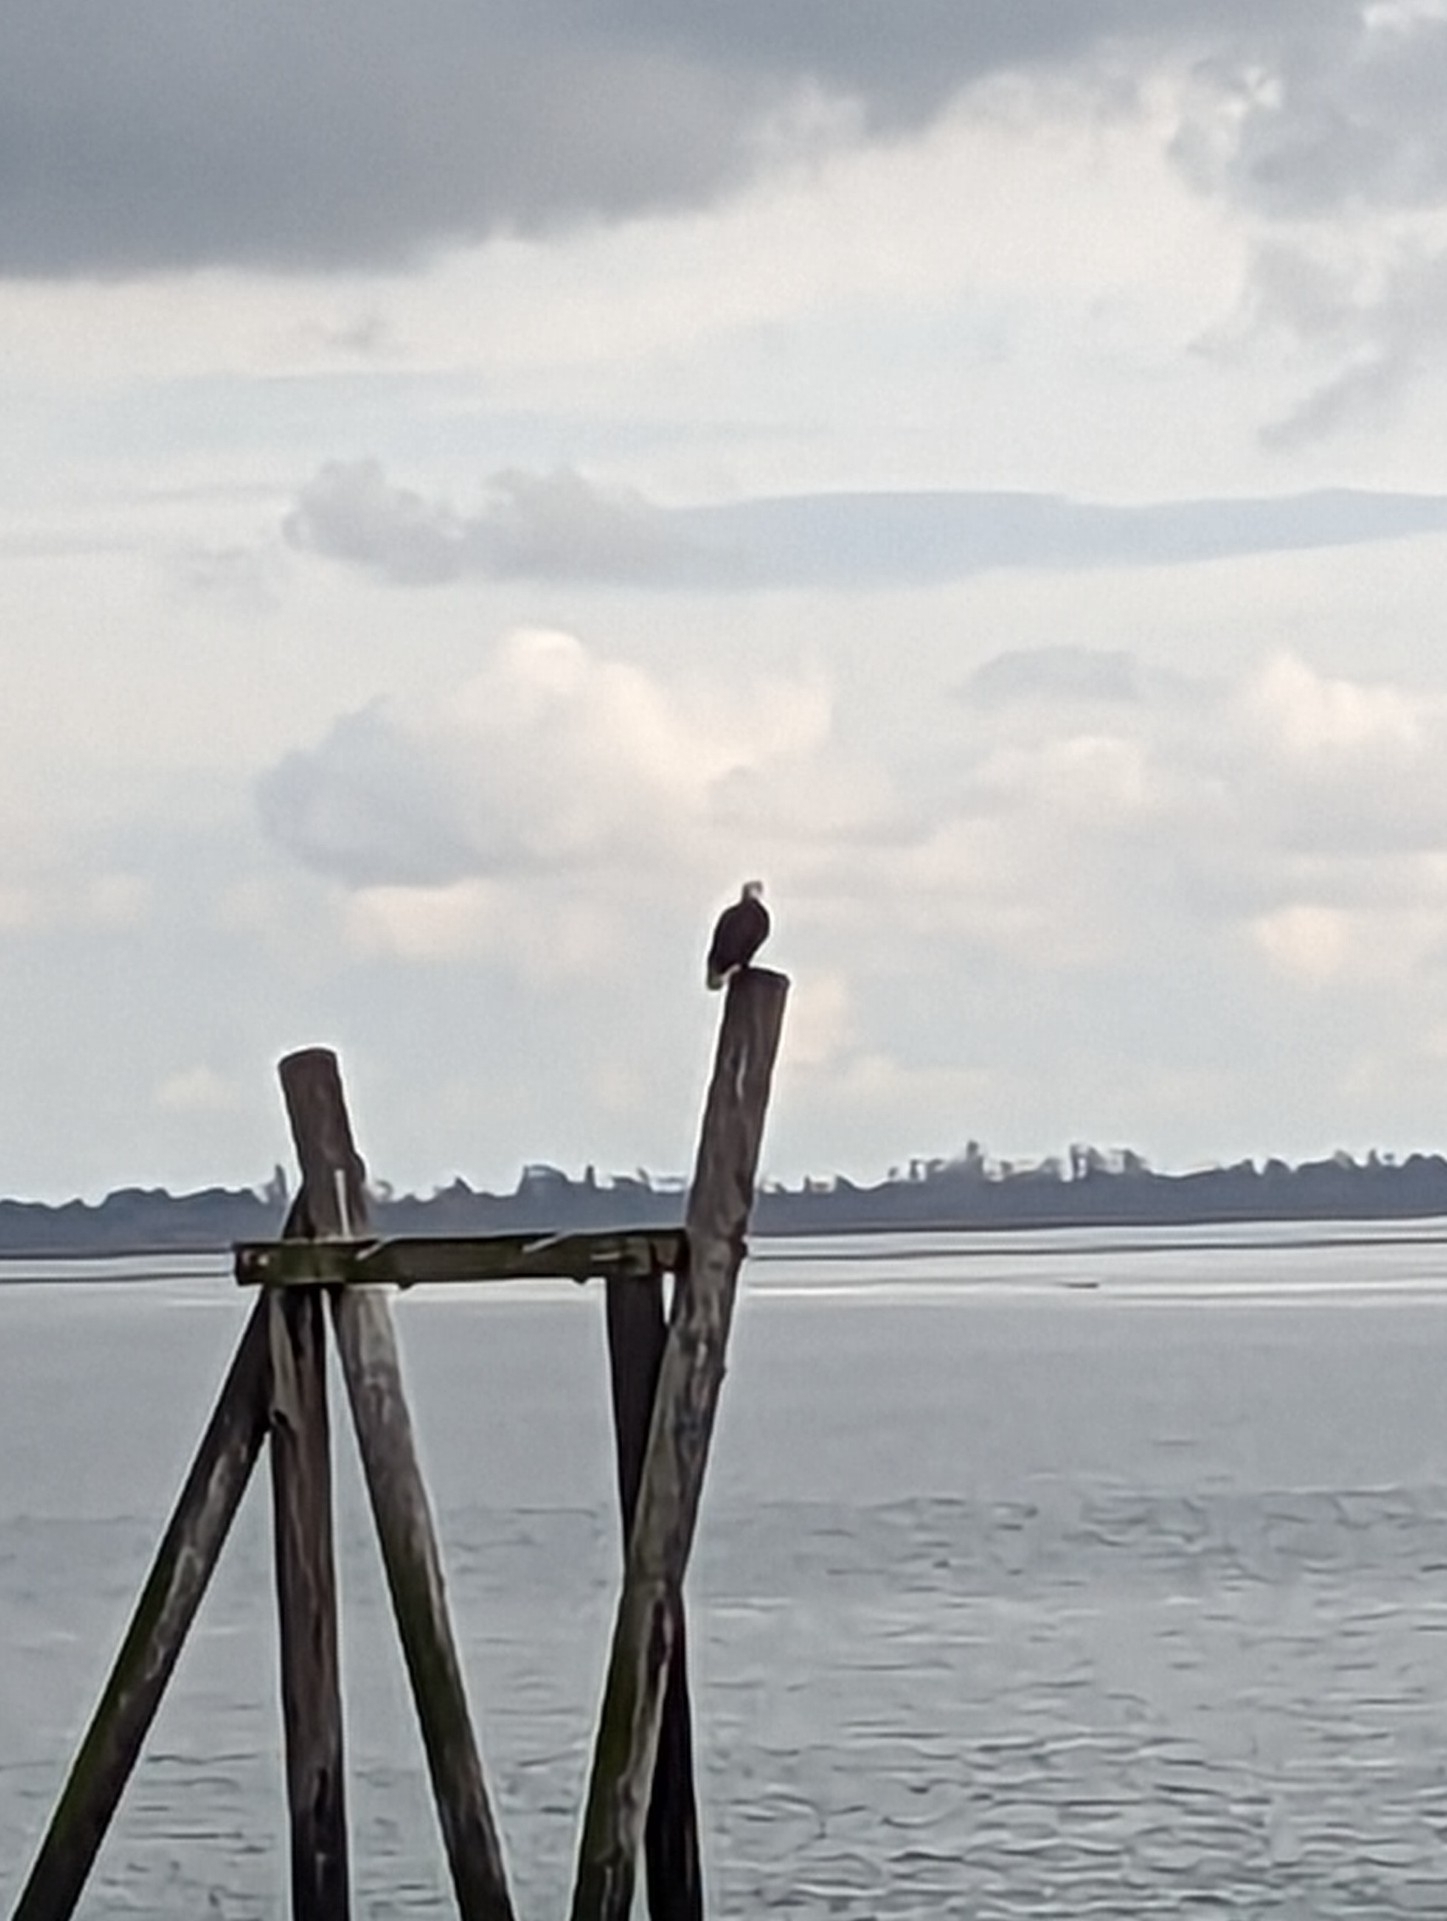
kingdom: Animalia
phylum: Chordata
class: Aves
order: Accipitriformes
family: Accipitridae
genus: Haliaeetus
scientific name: Haliaeetus leucocephalus
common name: Bald eagle
